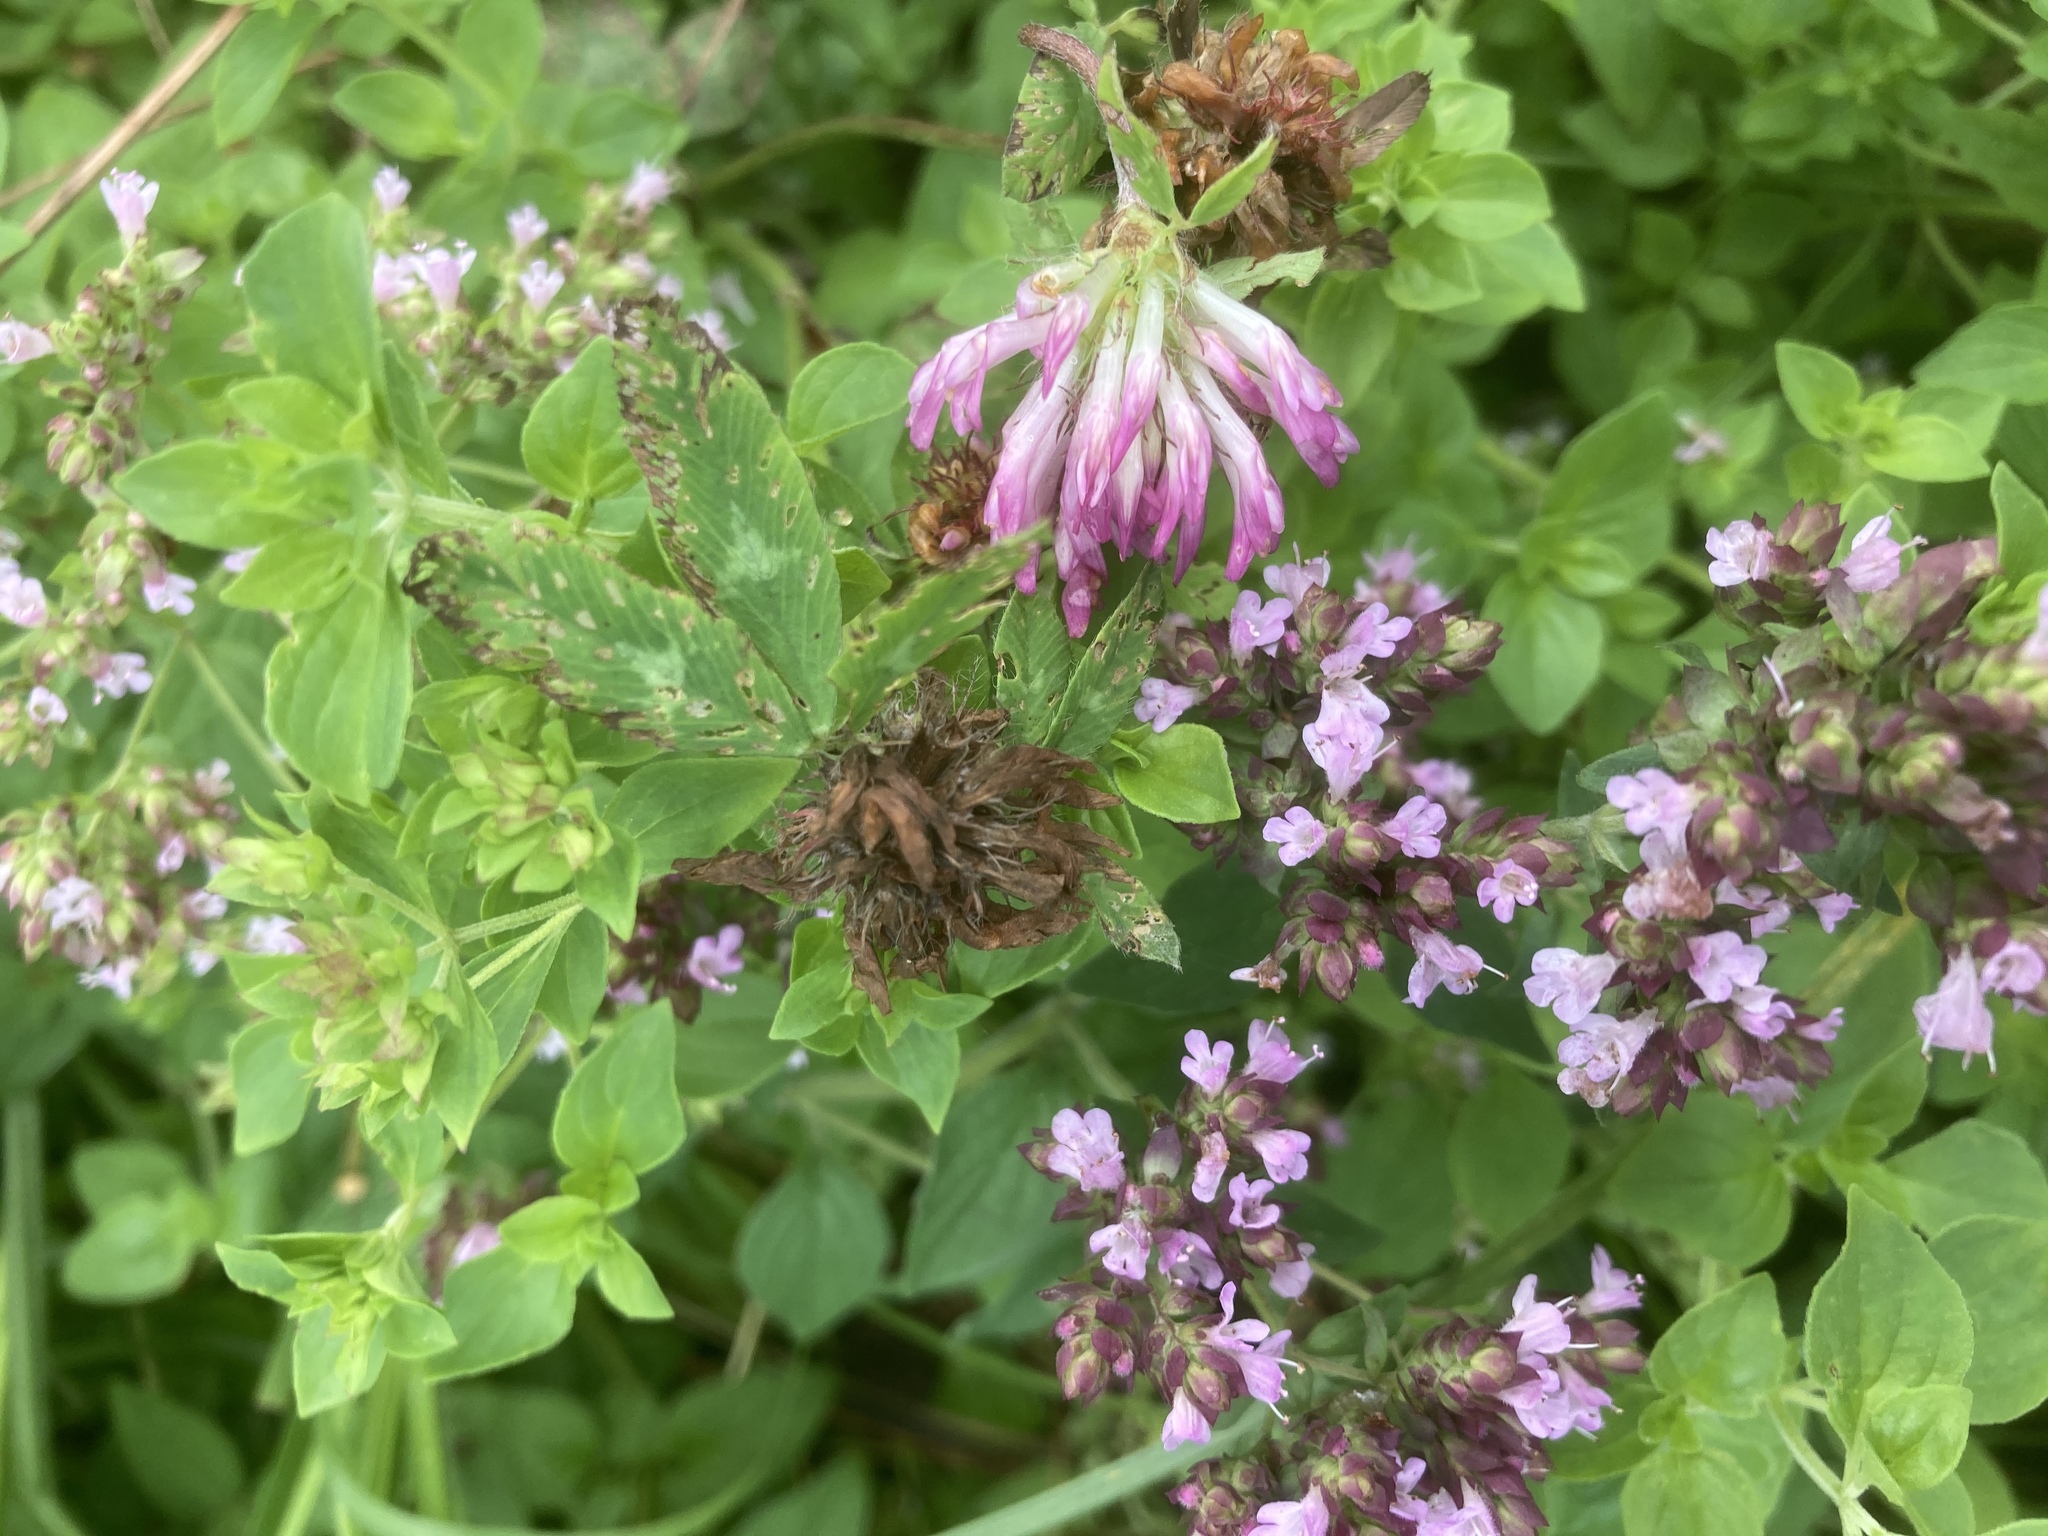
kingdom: Plantae
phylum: Tracheophyta
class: Magnoliopsida
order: Lamiales
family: Lamiaceae
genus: Origanum
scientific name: Origanum vulgare
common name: Wild marjoram
